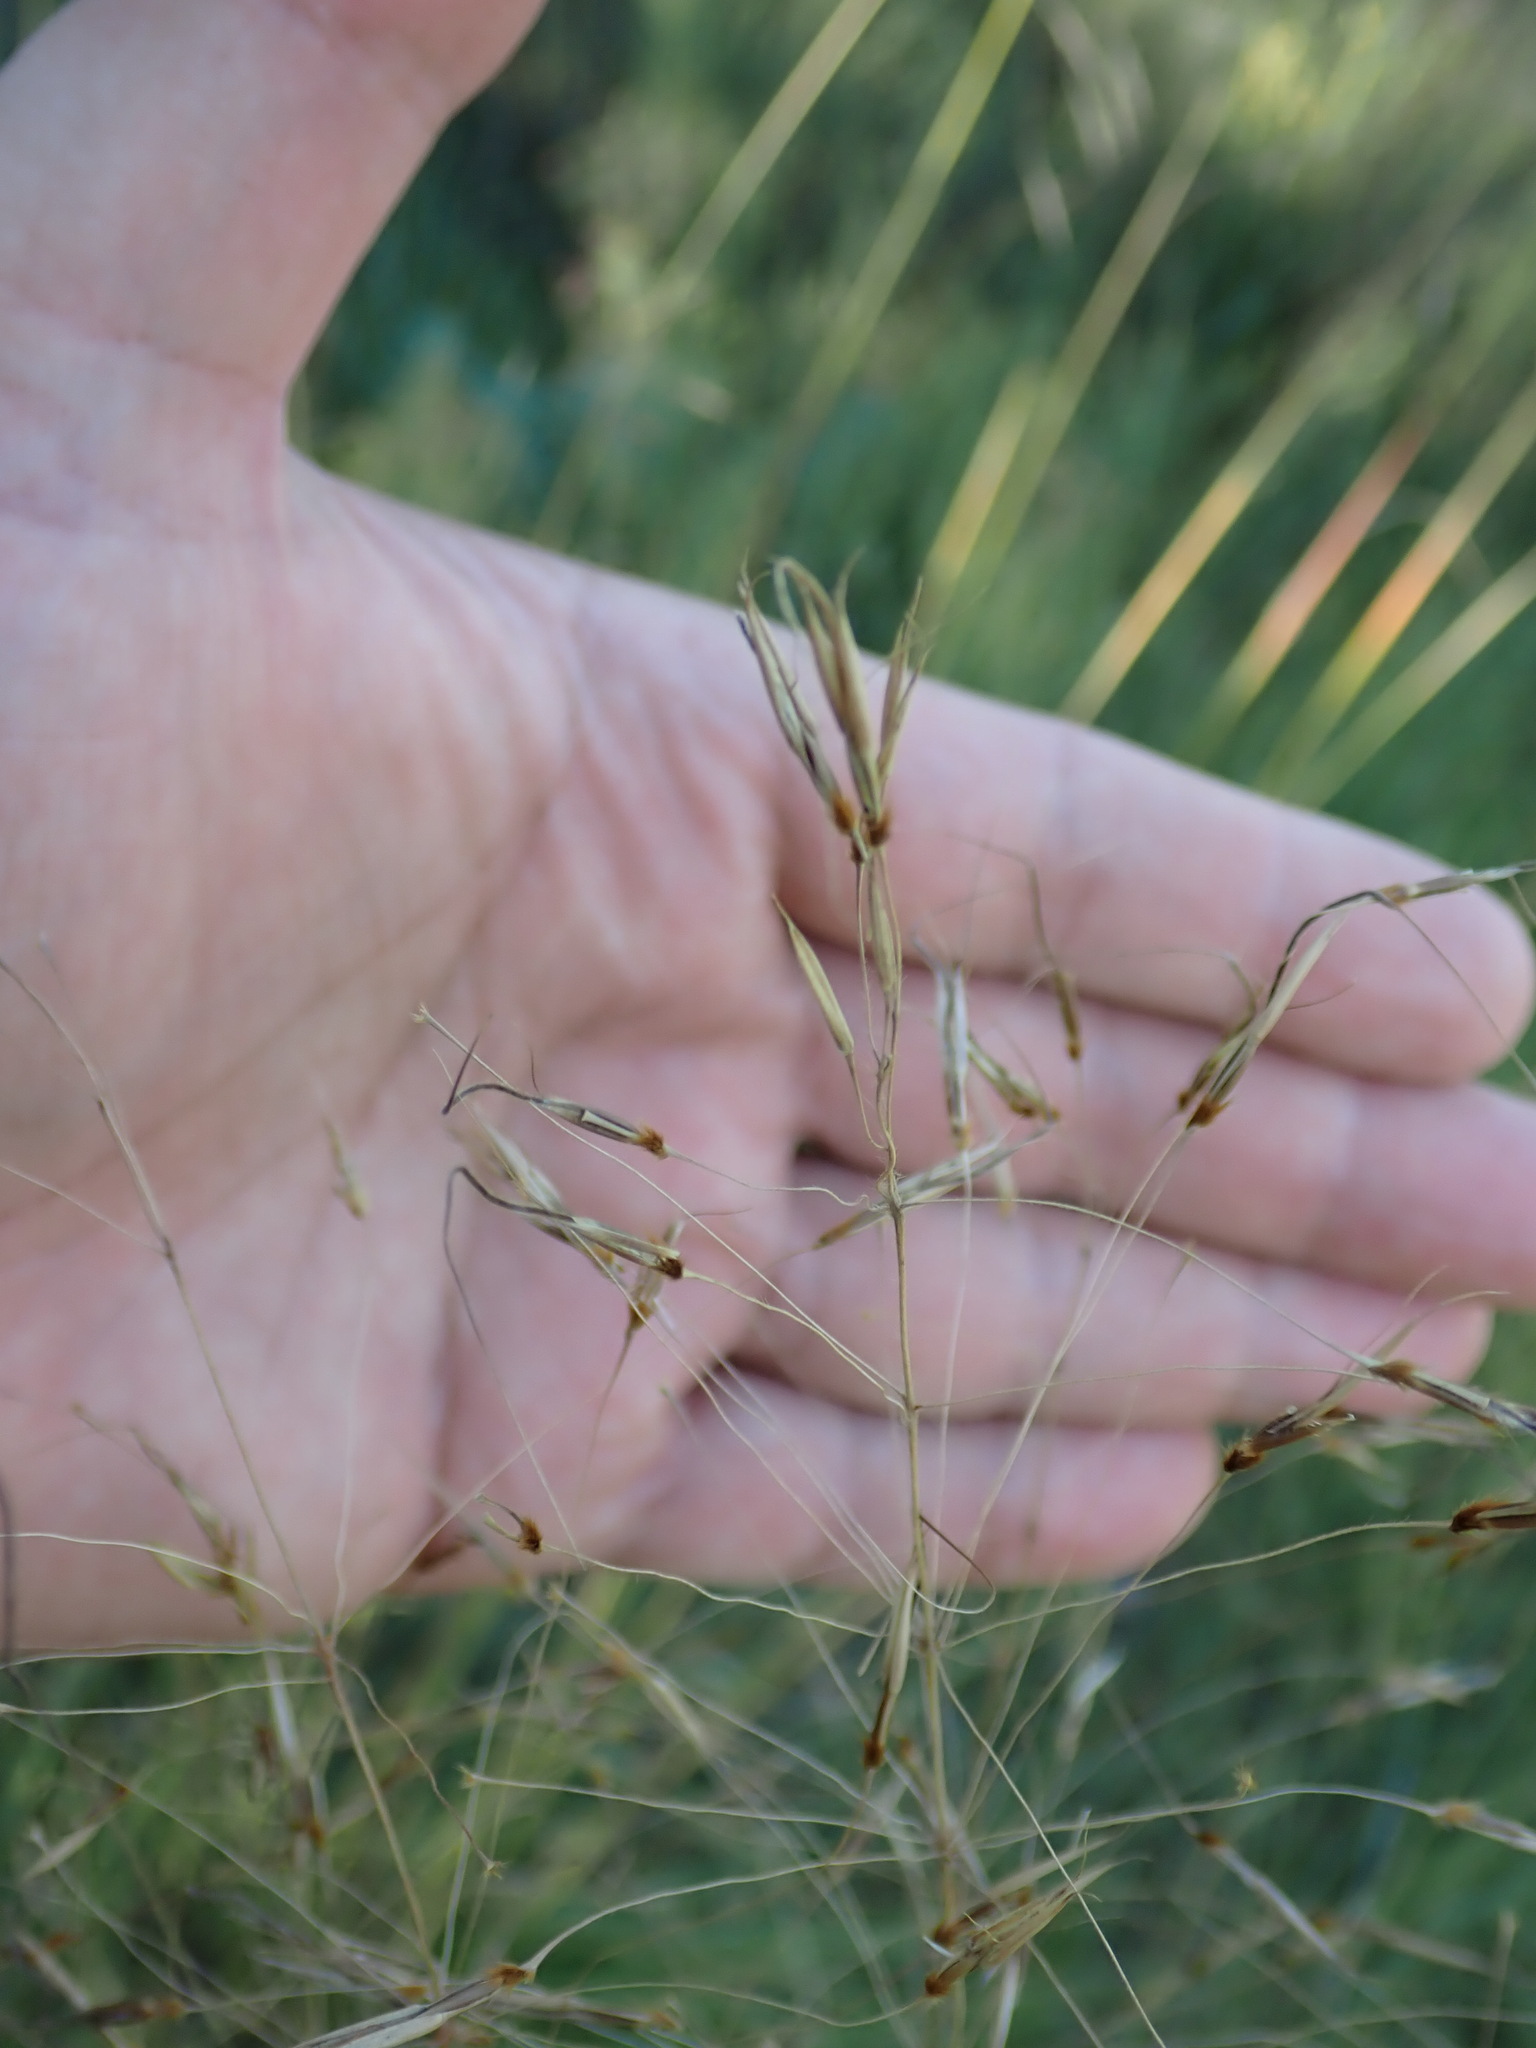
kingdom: Plantae
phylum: Tracheophyta
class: Liliopsida
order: Poales
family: Poaceae
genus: Chrysopogon
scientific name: Chrysopogon gryllus
